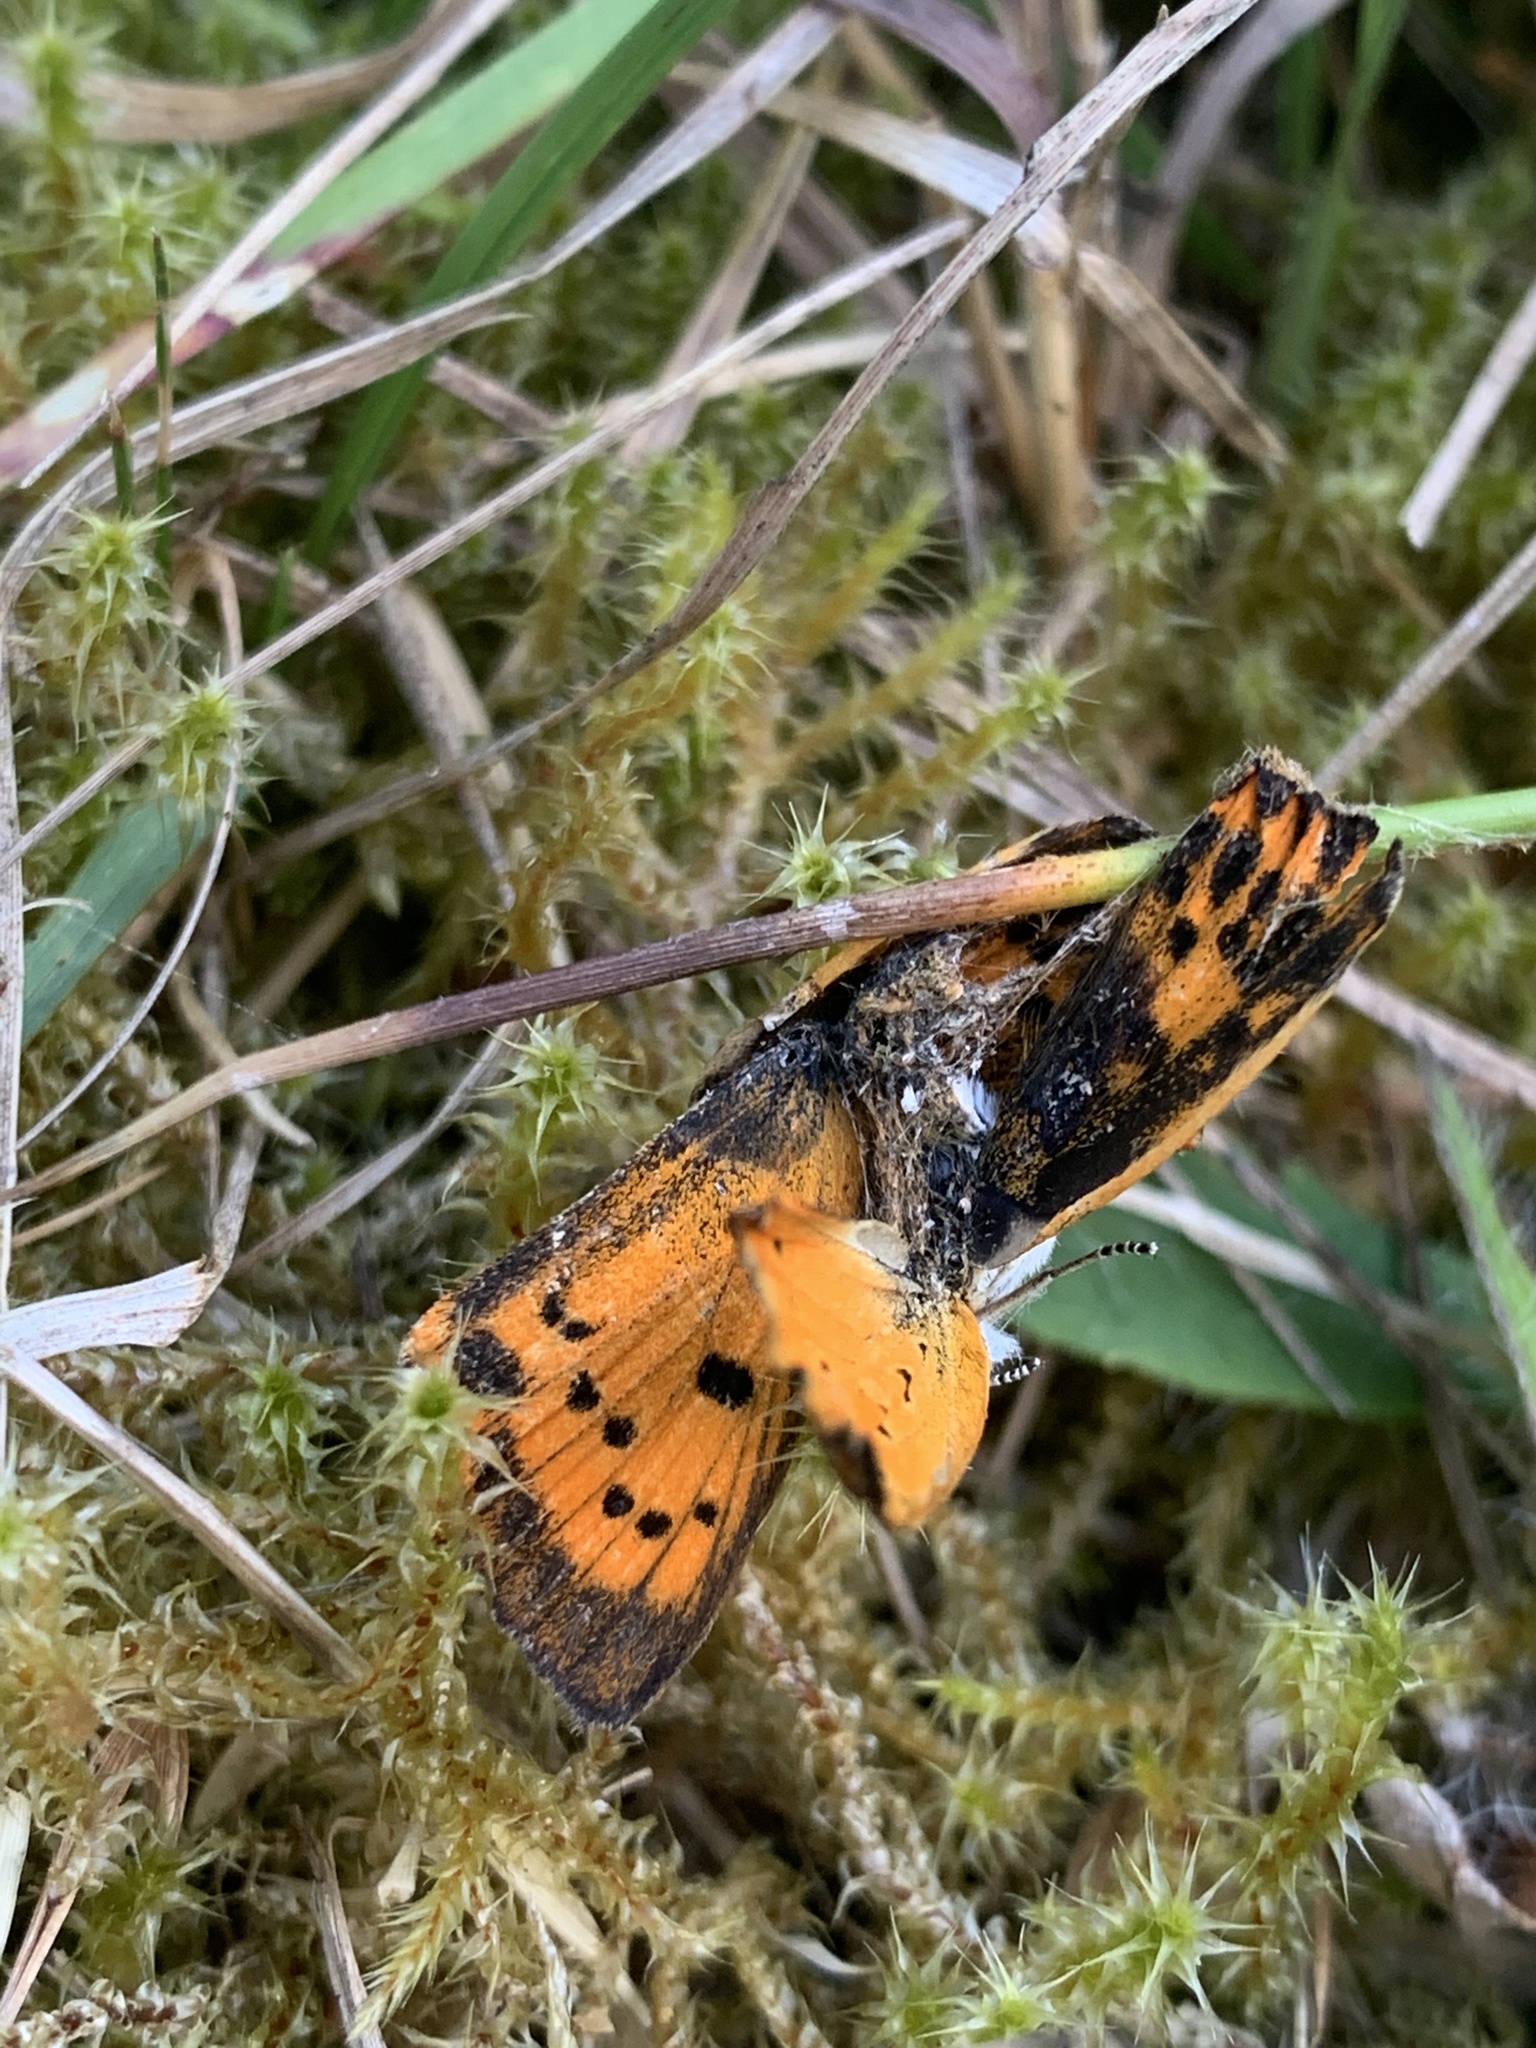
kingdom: Animalia
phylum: Arthropoda
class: Insecta
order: Lepidoptera
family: Lycaenidae
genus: Lycaena
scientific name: Lycaena virgaureae
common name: Scarce copper
